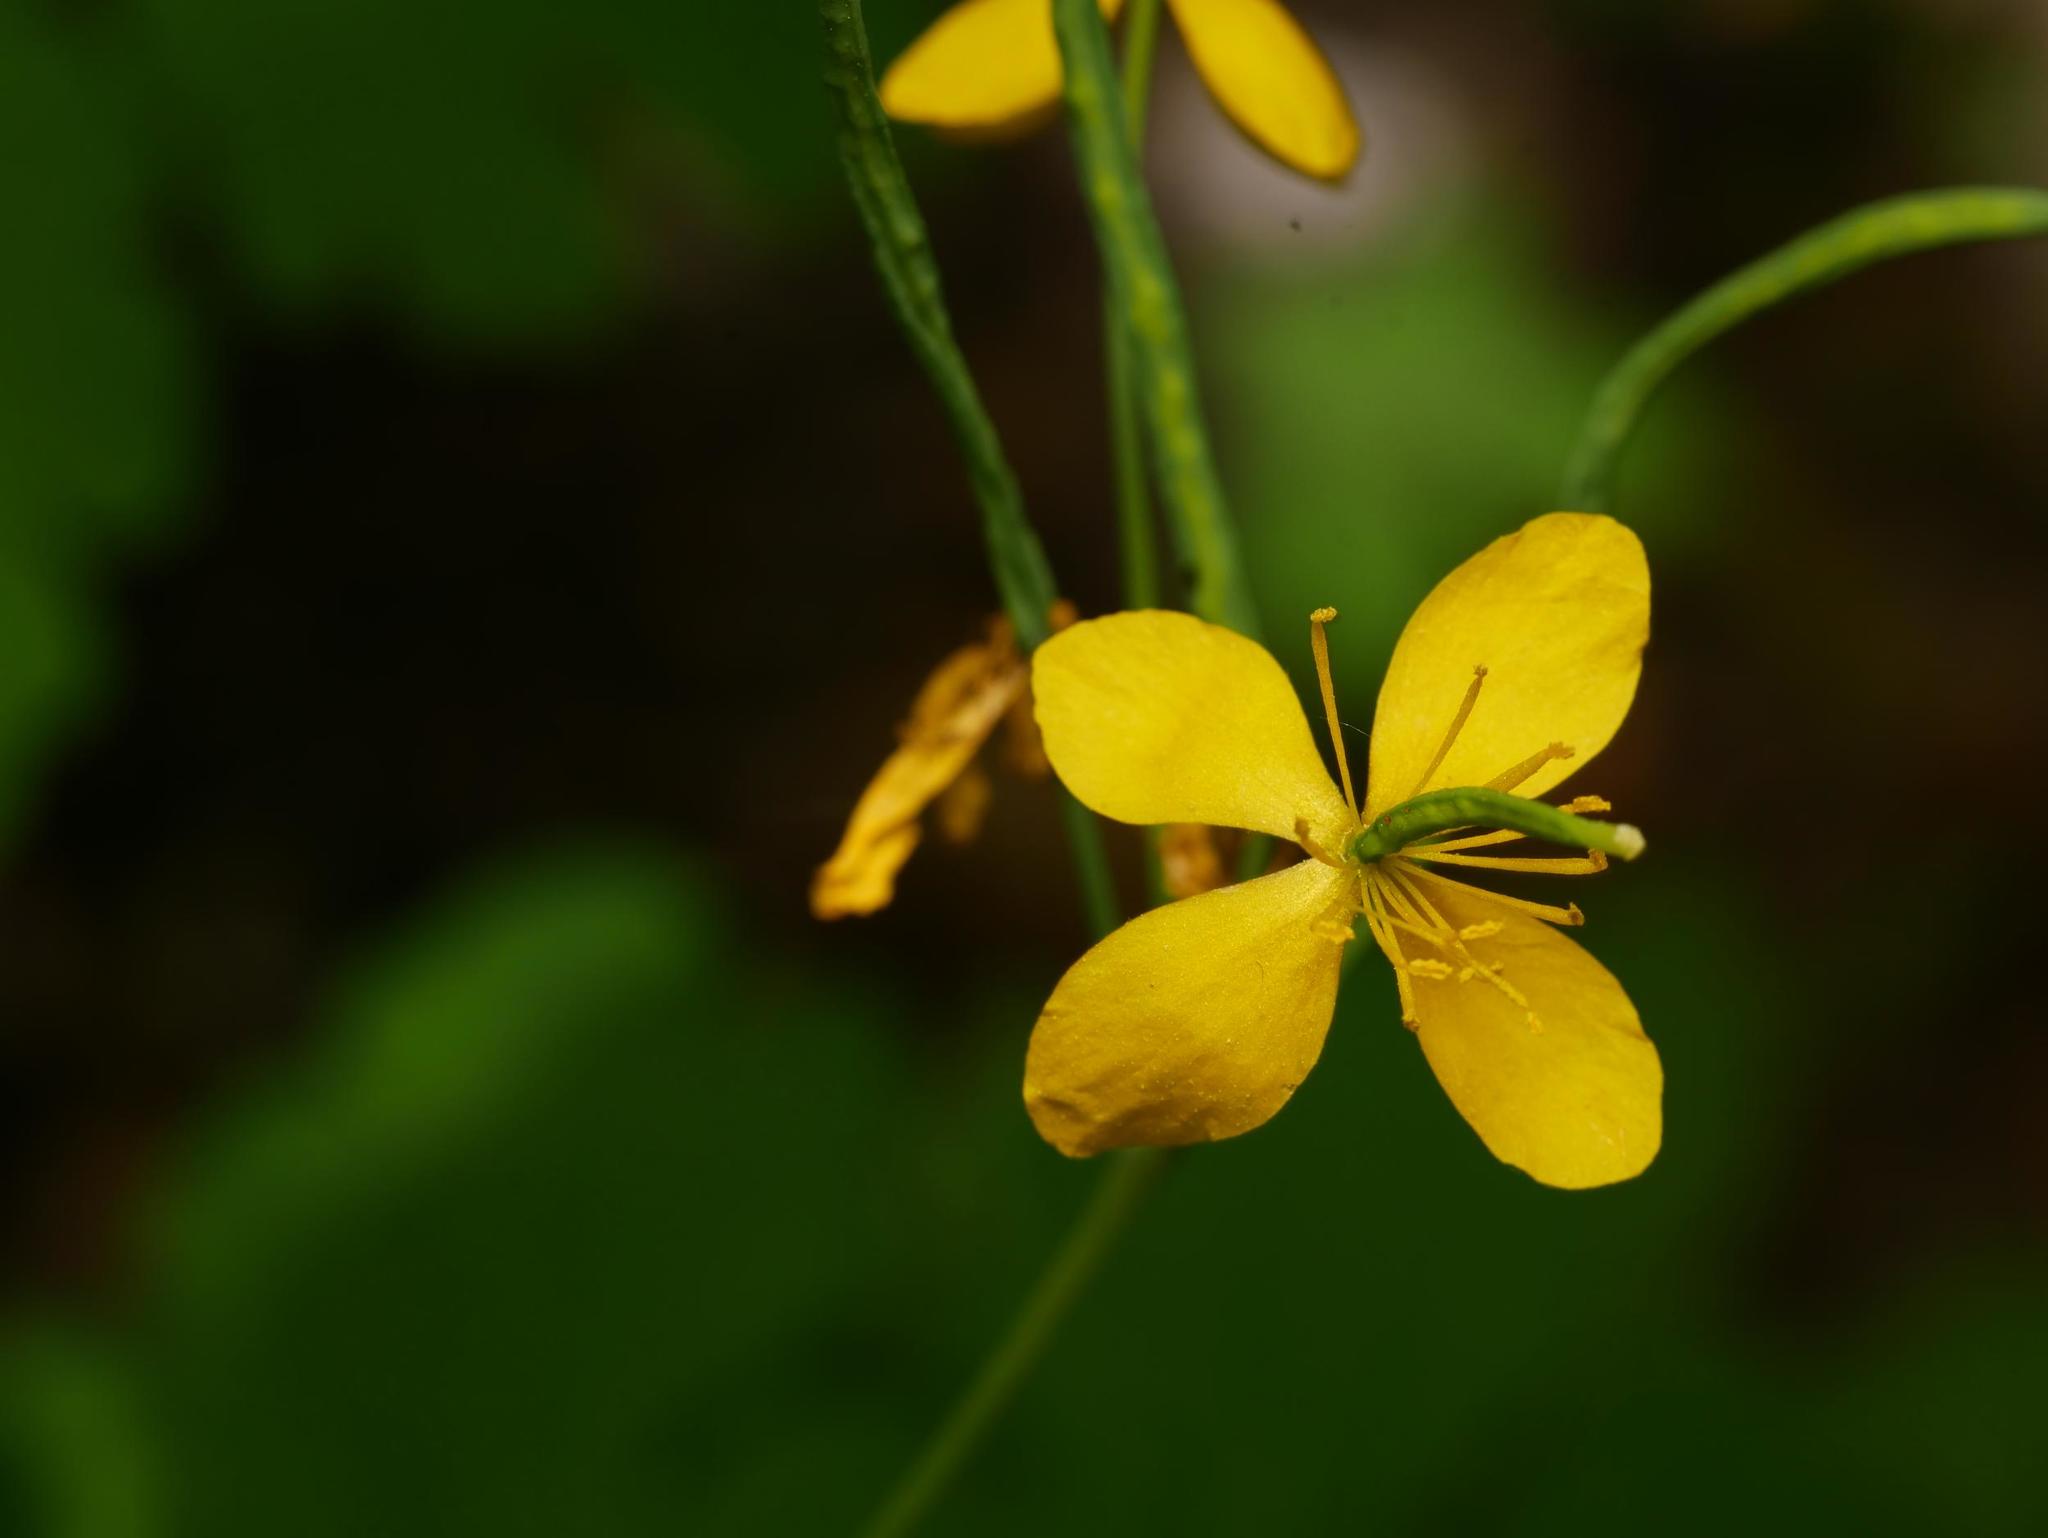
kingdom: Plantae
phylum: Tracheophyta
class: Magnoliopsida
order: Ranunculales
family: Papaveraceae
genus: Chelidonium
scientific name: Chelidonium majus
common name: Greater celandine
